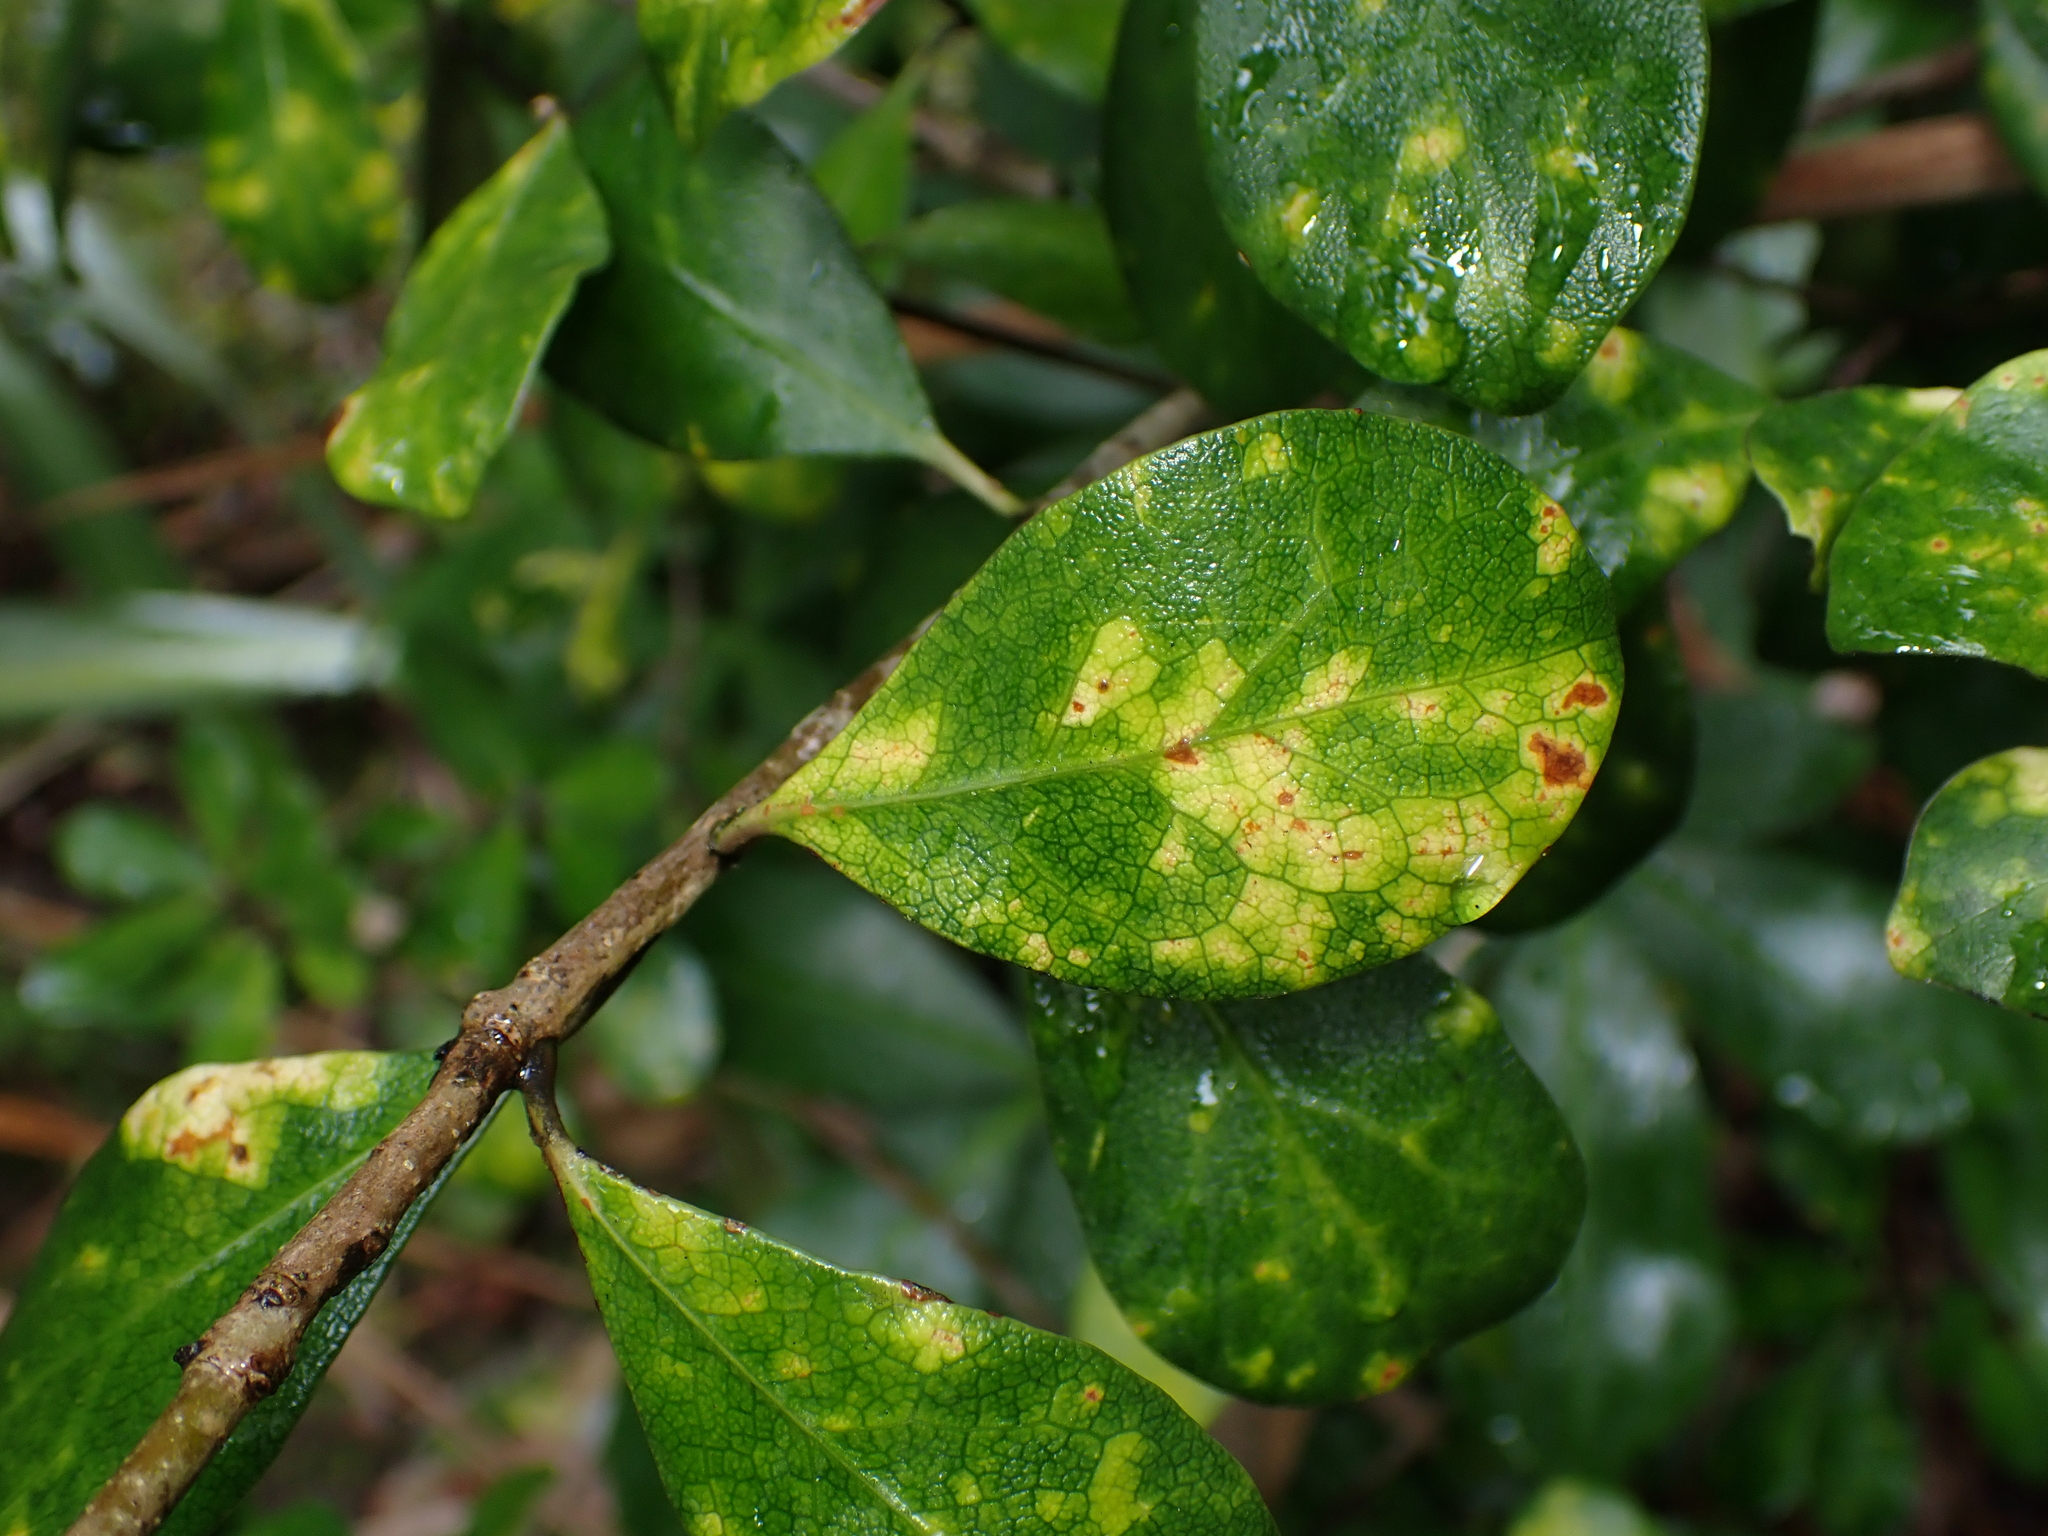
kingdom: Animalia
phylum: Nematoda
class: Chromadorea
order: Rhabditida
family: Anguinidae
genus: Zeatylenchus
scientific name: Zeatylenchus pittosporum
